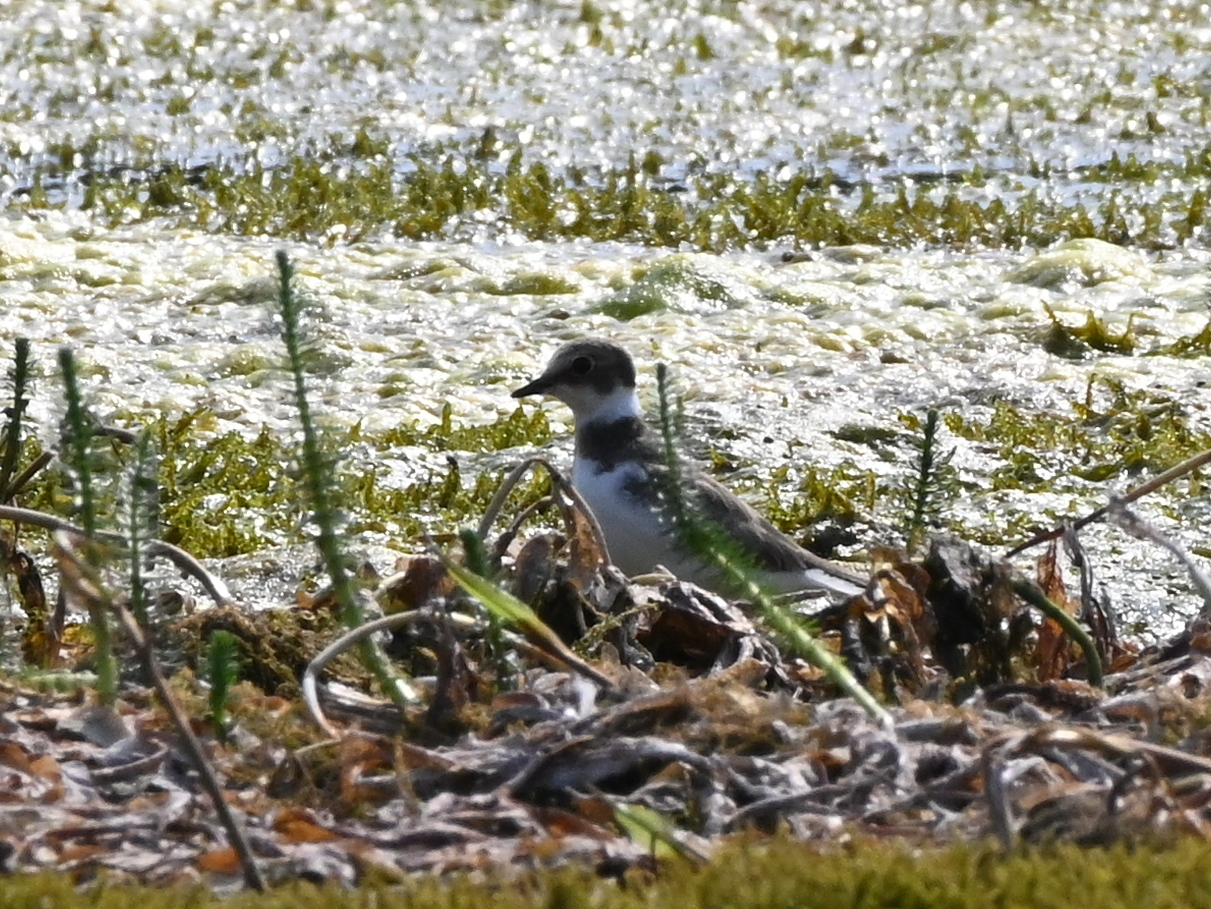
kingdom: Animalia
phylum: Chordata
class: Aves
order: Charadriiformes
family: Charadriidae
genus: Charadrius
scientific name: Charadrius dubius
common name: Little ringed plover
